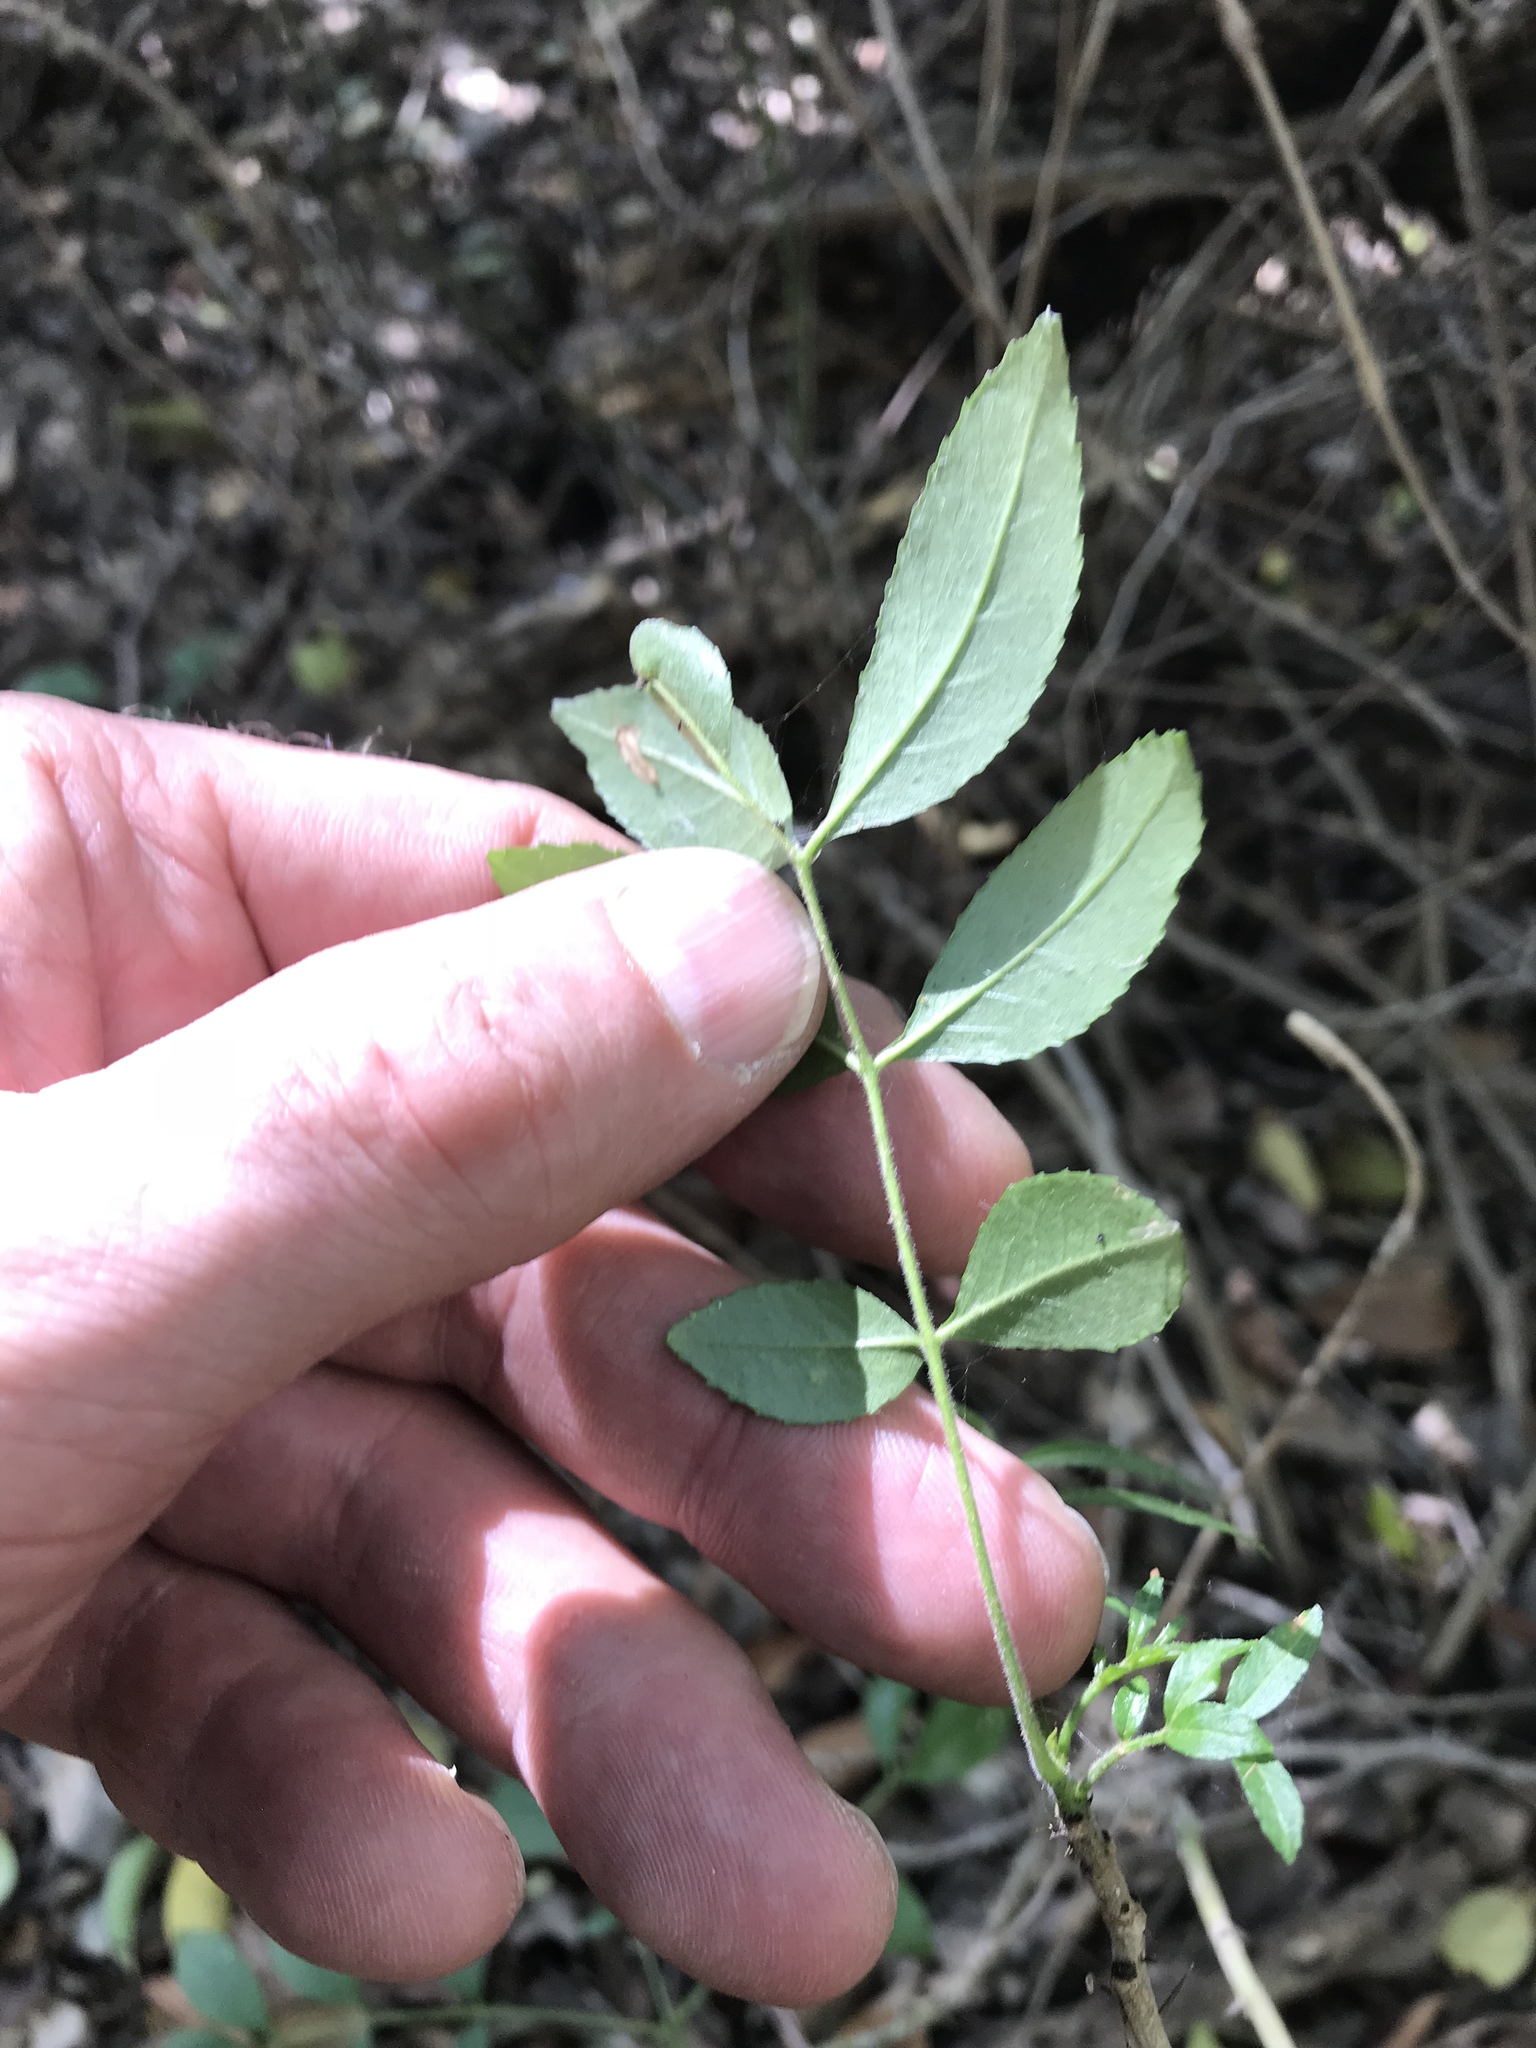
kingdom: Plantae
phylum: Tracheophyta
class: Magnoliopsida
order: Sapindales
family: Rutaceae
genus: Zanthoxylum
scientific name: Zanthoxylum clava-herculis
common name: Hercules'-club
